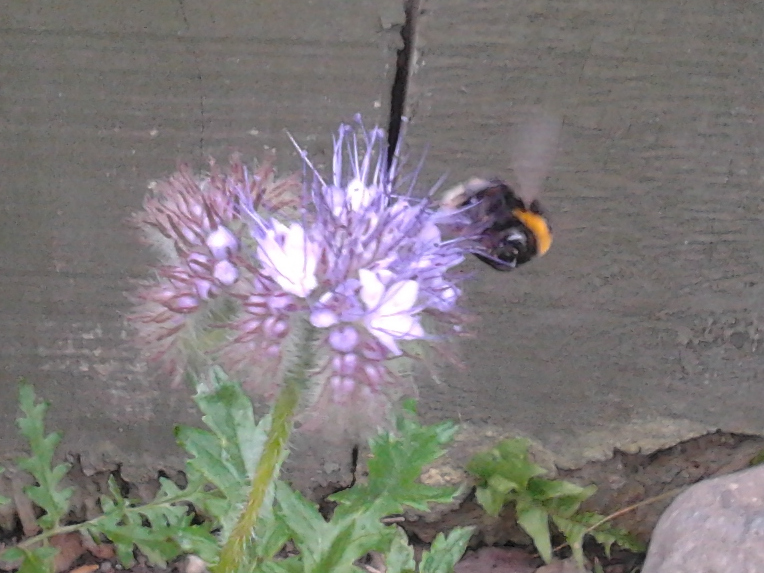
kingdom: Animalia
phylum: Arthropoda
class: Insecta
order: Hymenoptera
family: Apidae
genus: Bombus
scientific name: Bombus terrestris
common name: Buff-tailed bumblebee
